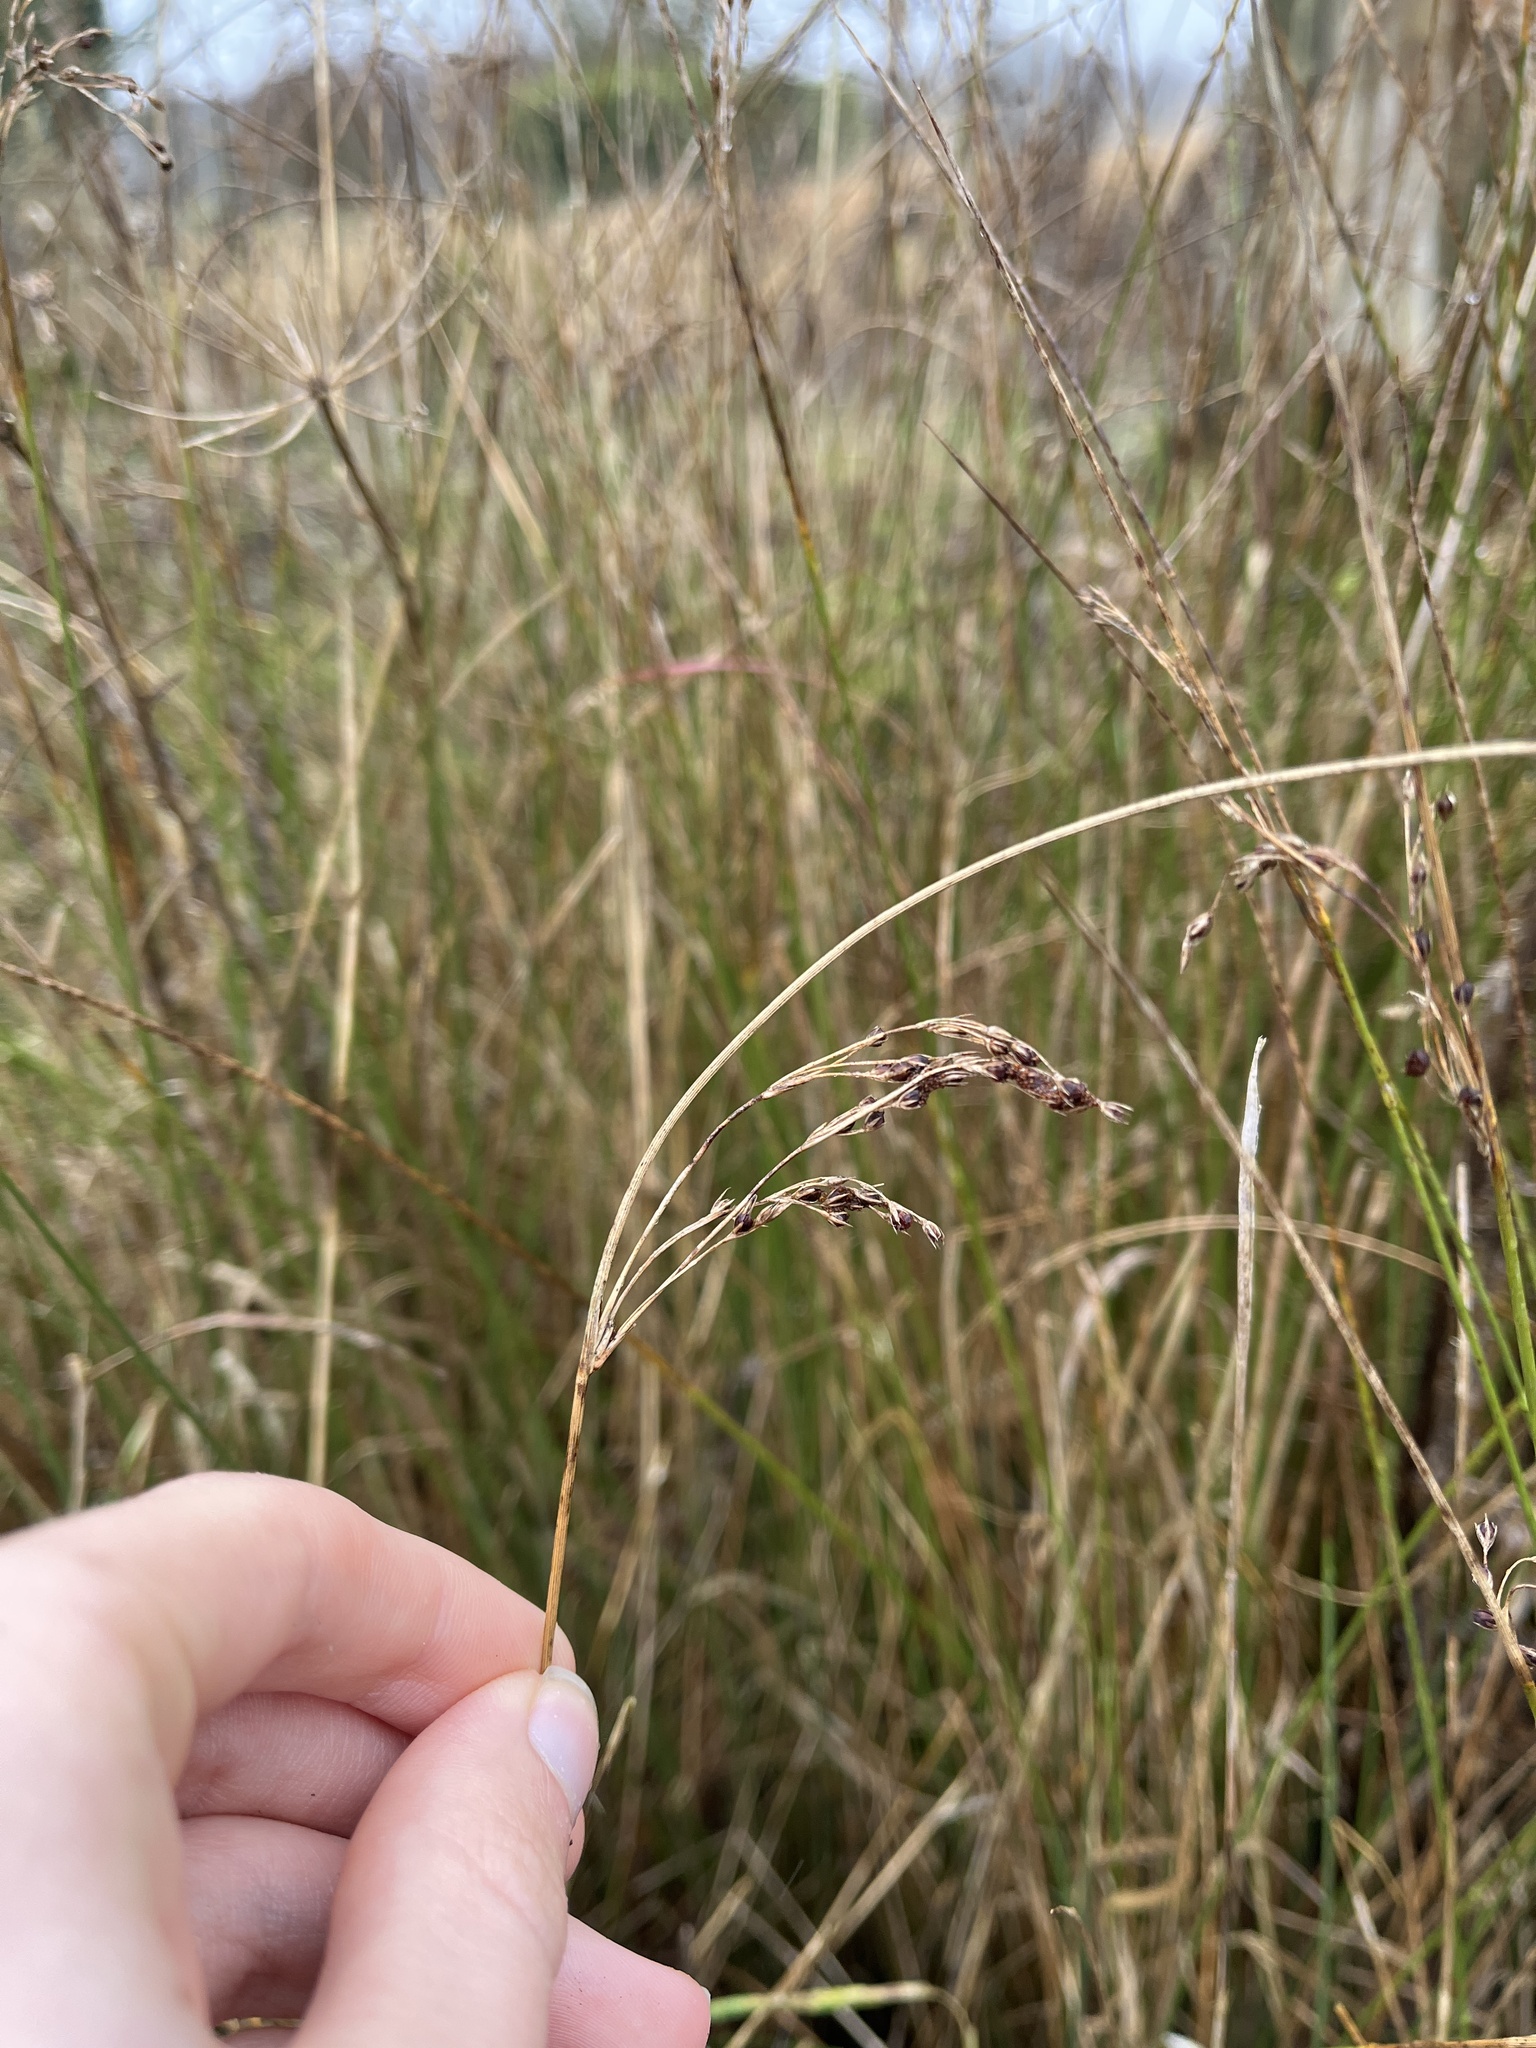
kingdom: Plantae
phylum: Tracheophyta
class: Liliopsida
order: Poales
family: Juncaceae
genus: Juncus
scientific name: Juncus inflexus
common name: Hard rush
